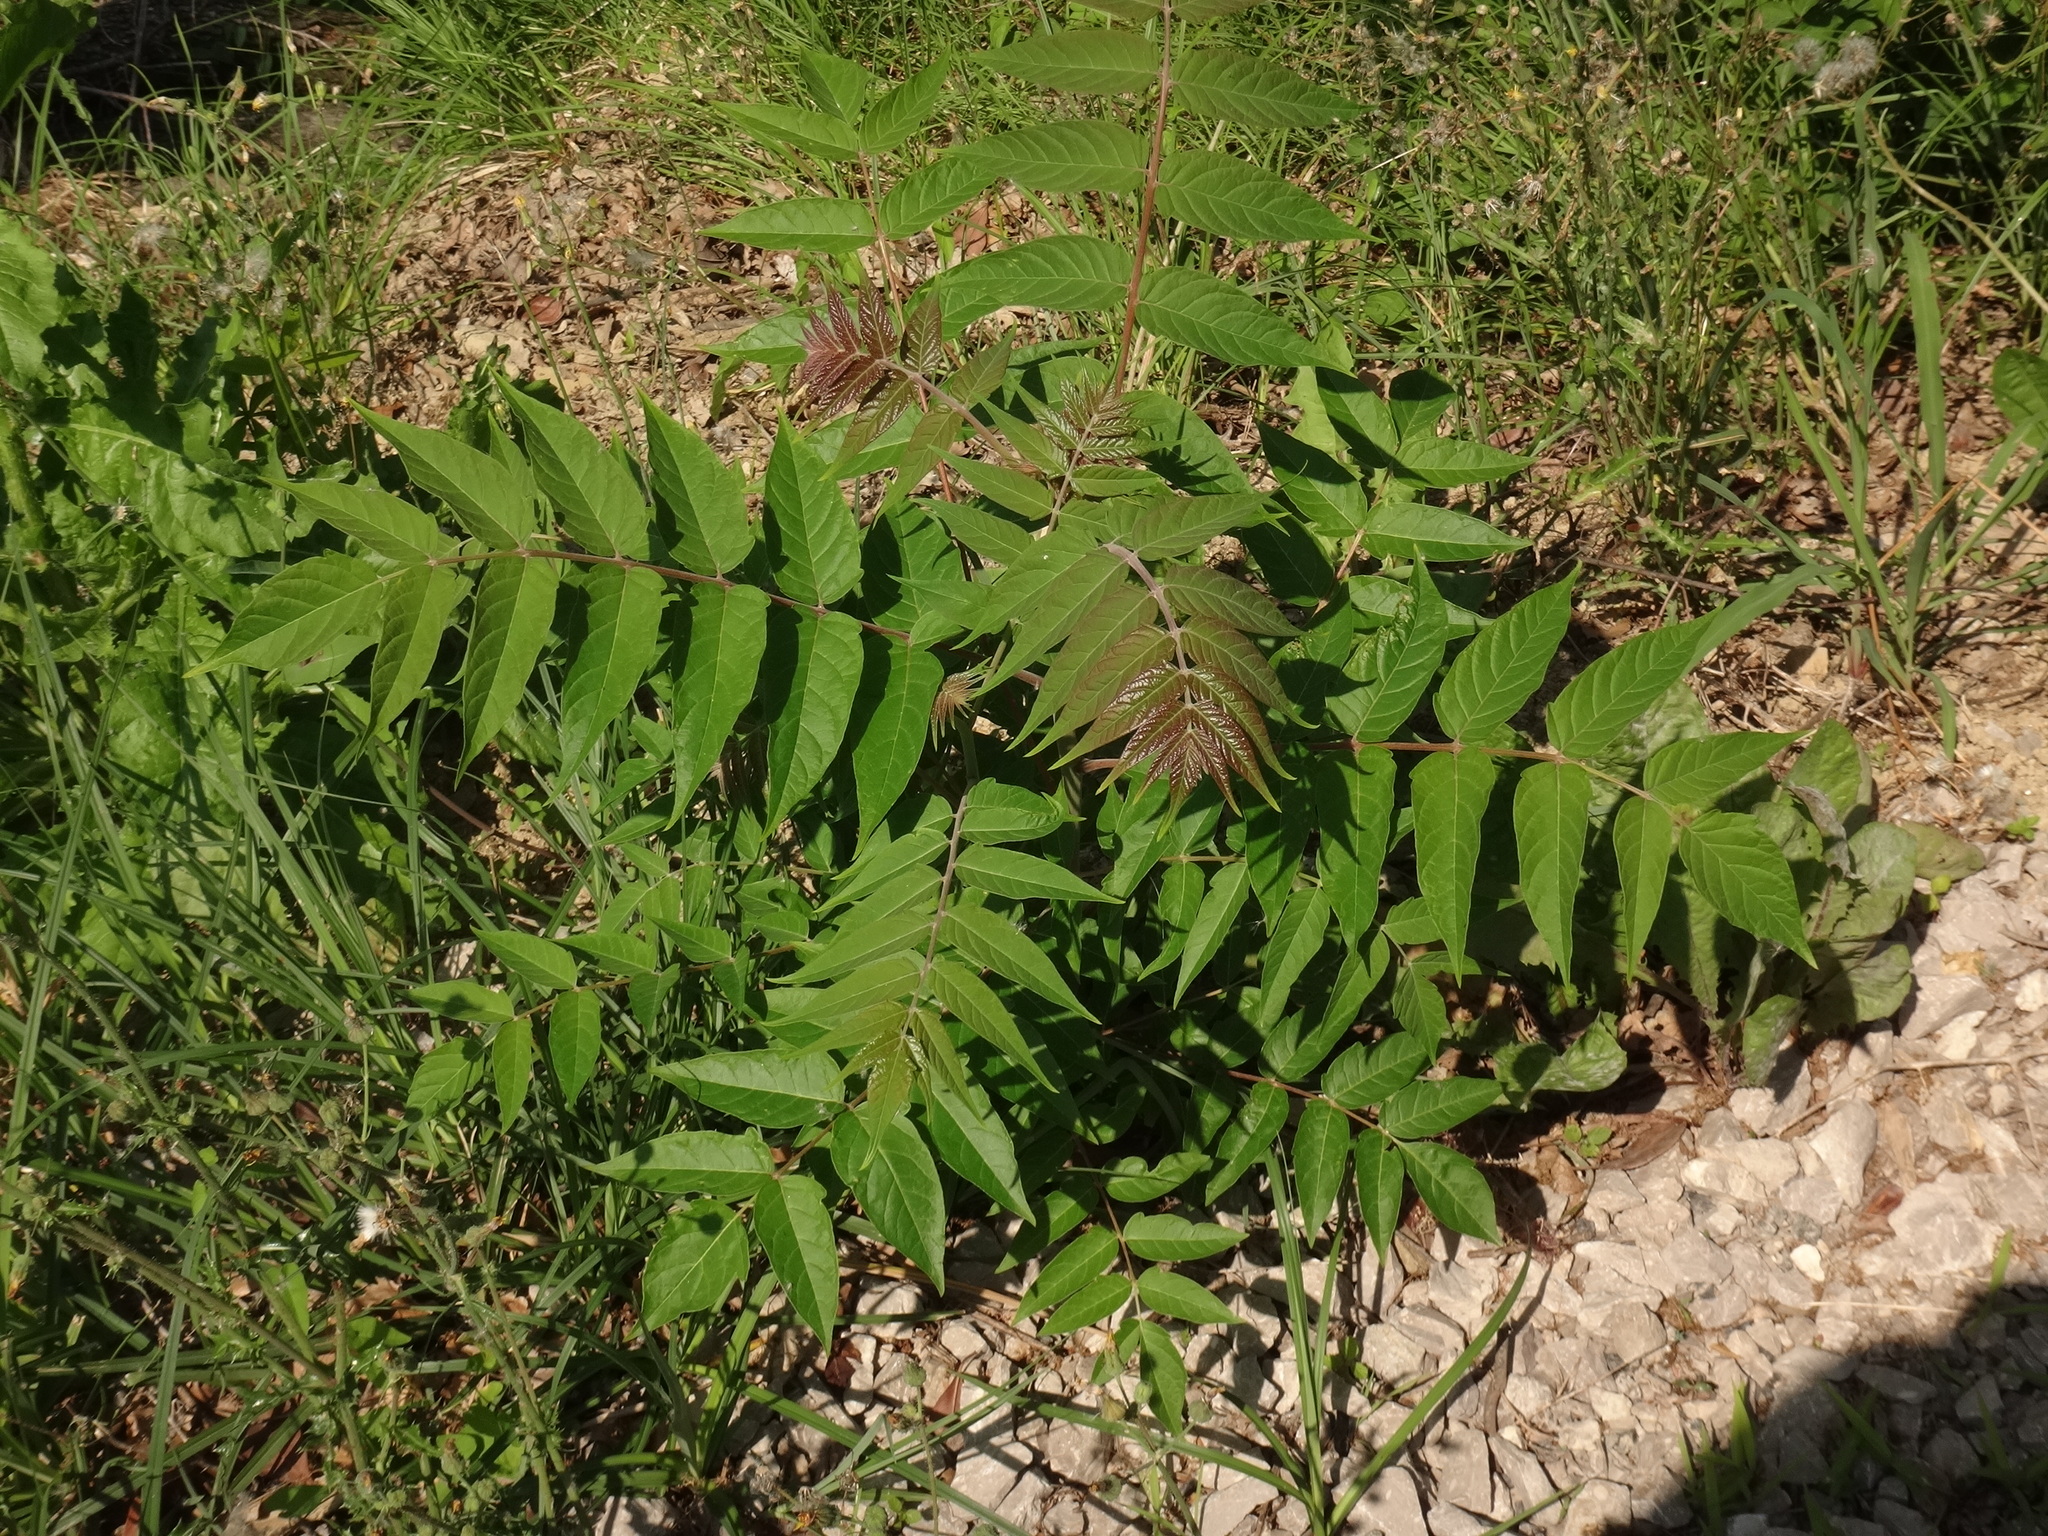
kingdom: Plantae
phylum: Tracheophyta
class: Magnoliopsida
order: Sapindales
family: Simaroubaceae
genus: Ailanthus
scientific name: Ailanthus altissima
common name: Tree-of-heaven
